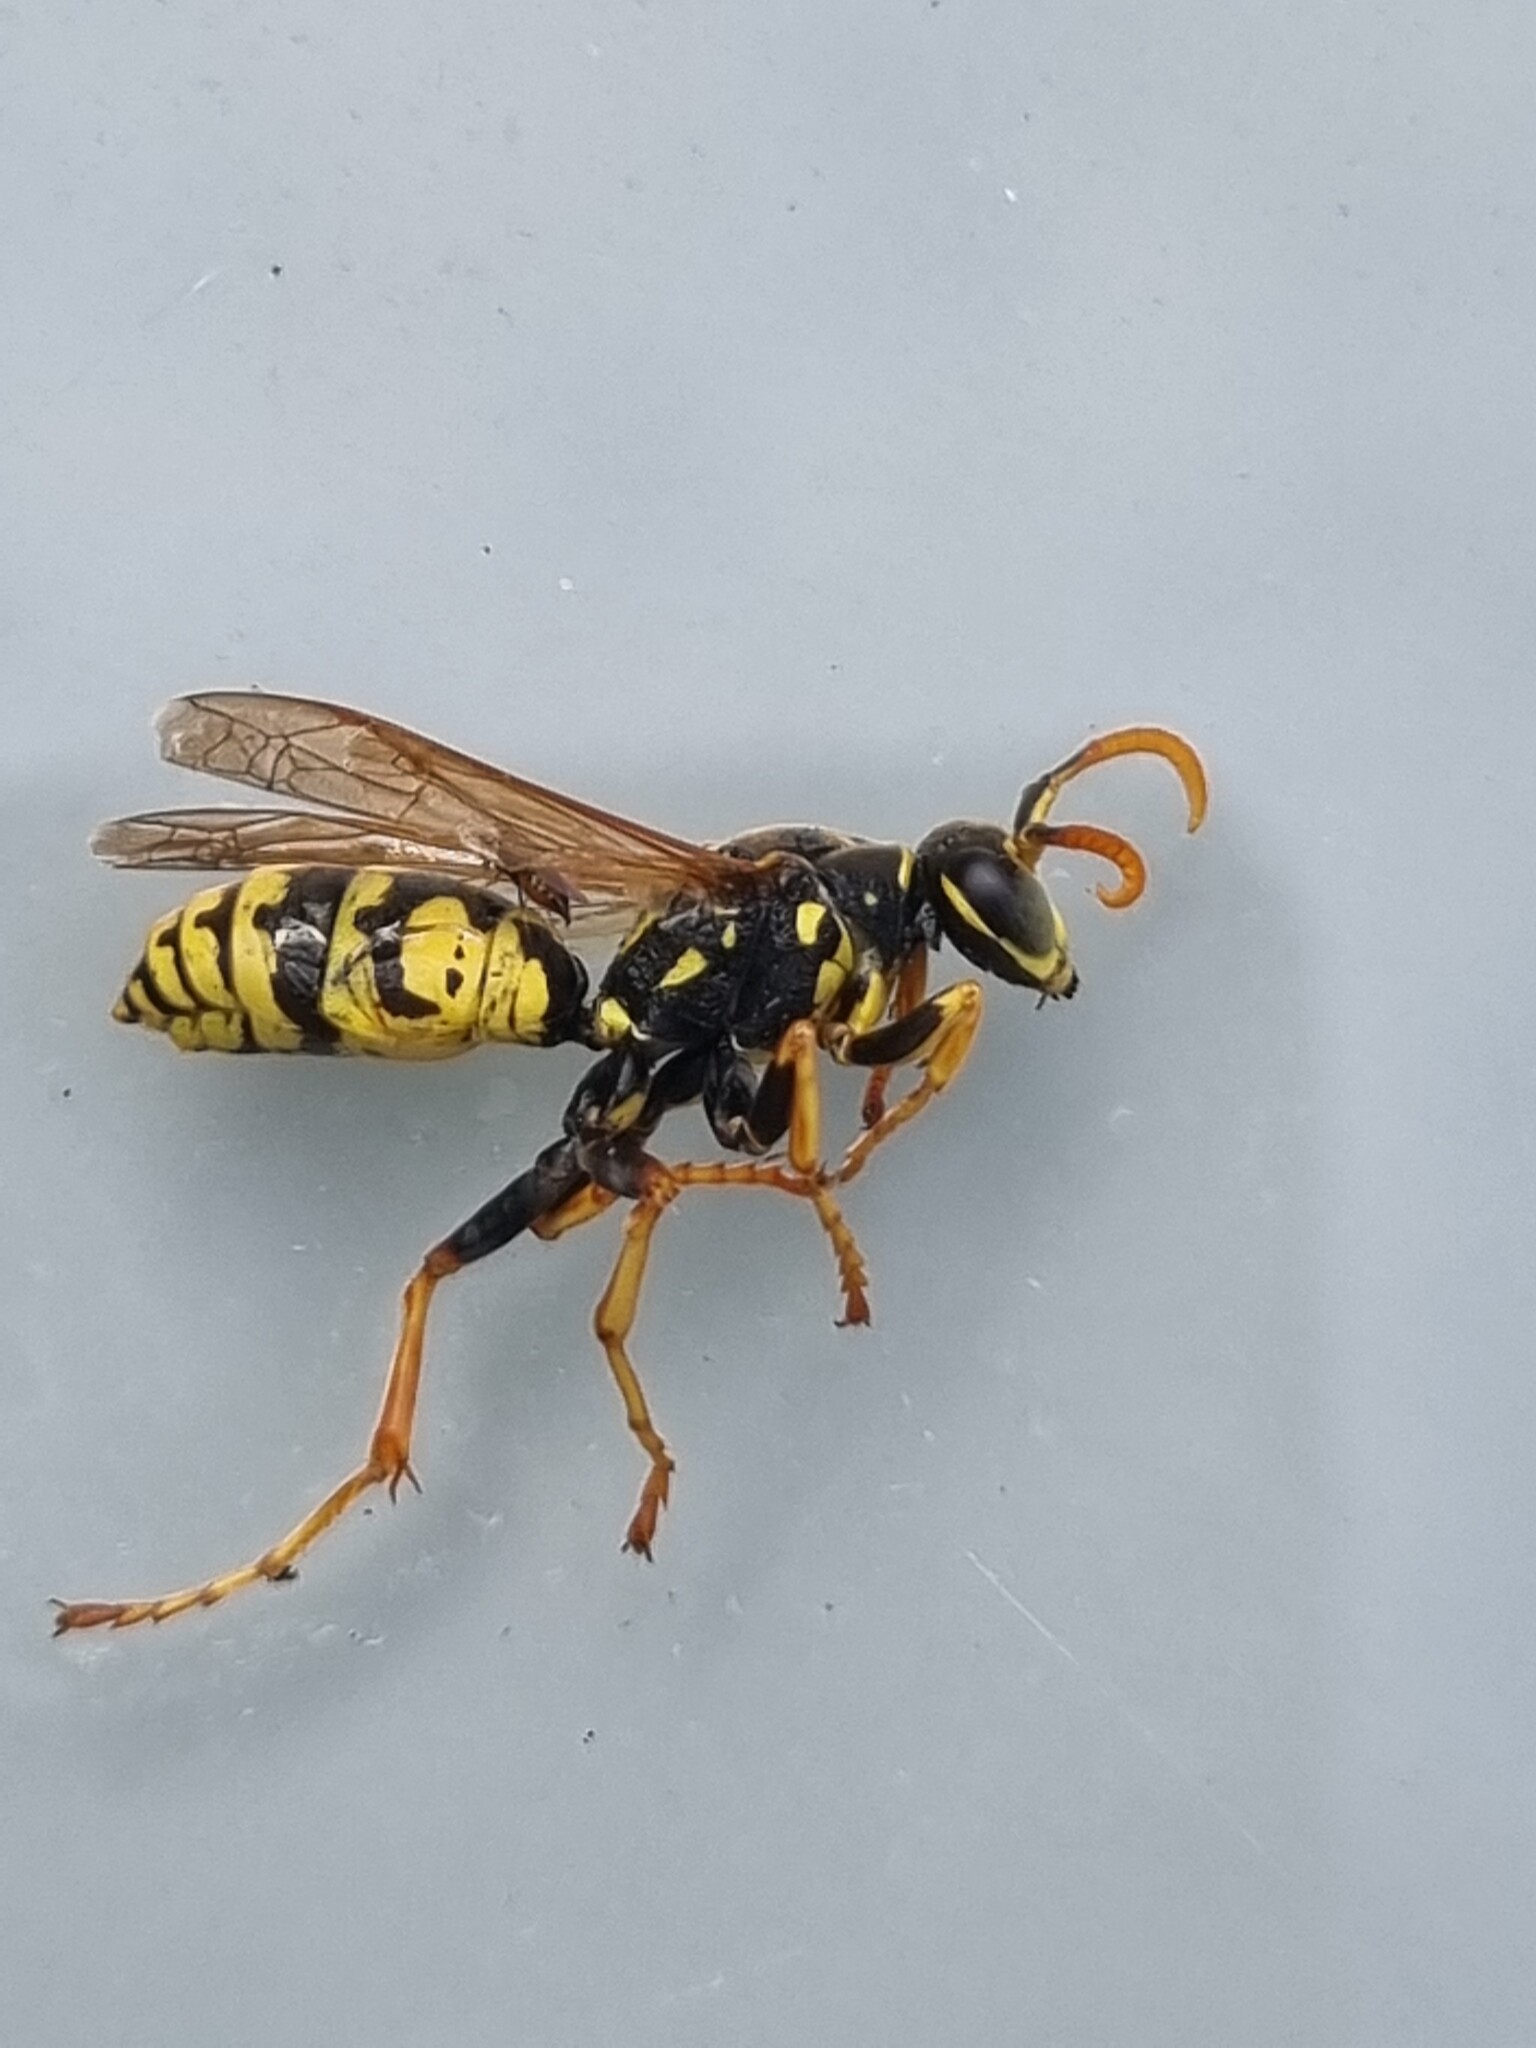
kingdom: Animalia
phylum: Arthropoda
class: Insecta
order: Hymenoptera
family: Eumenidae
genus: Polistes
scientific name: Polistes dominula
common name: Paper wasp
